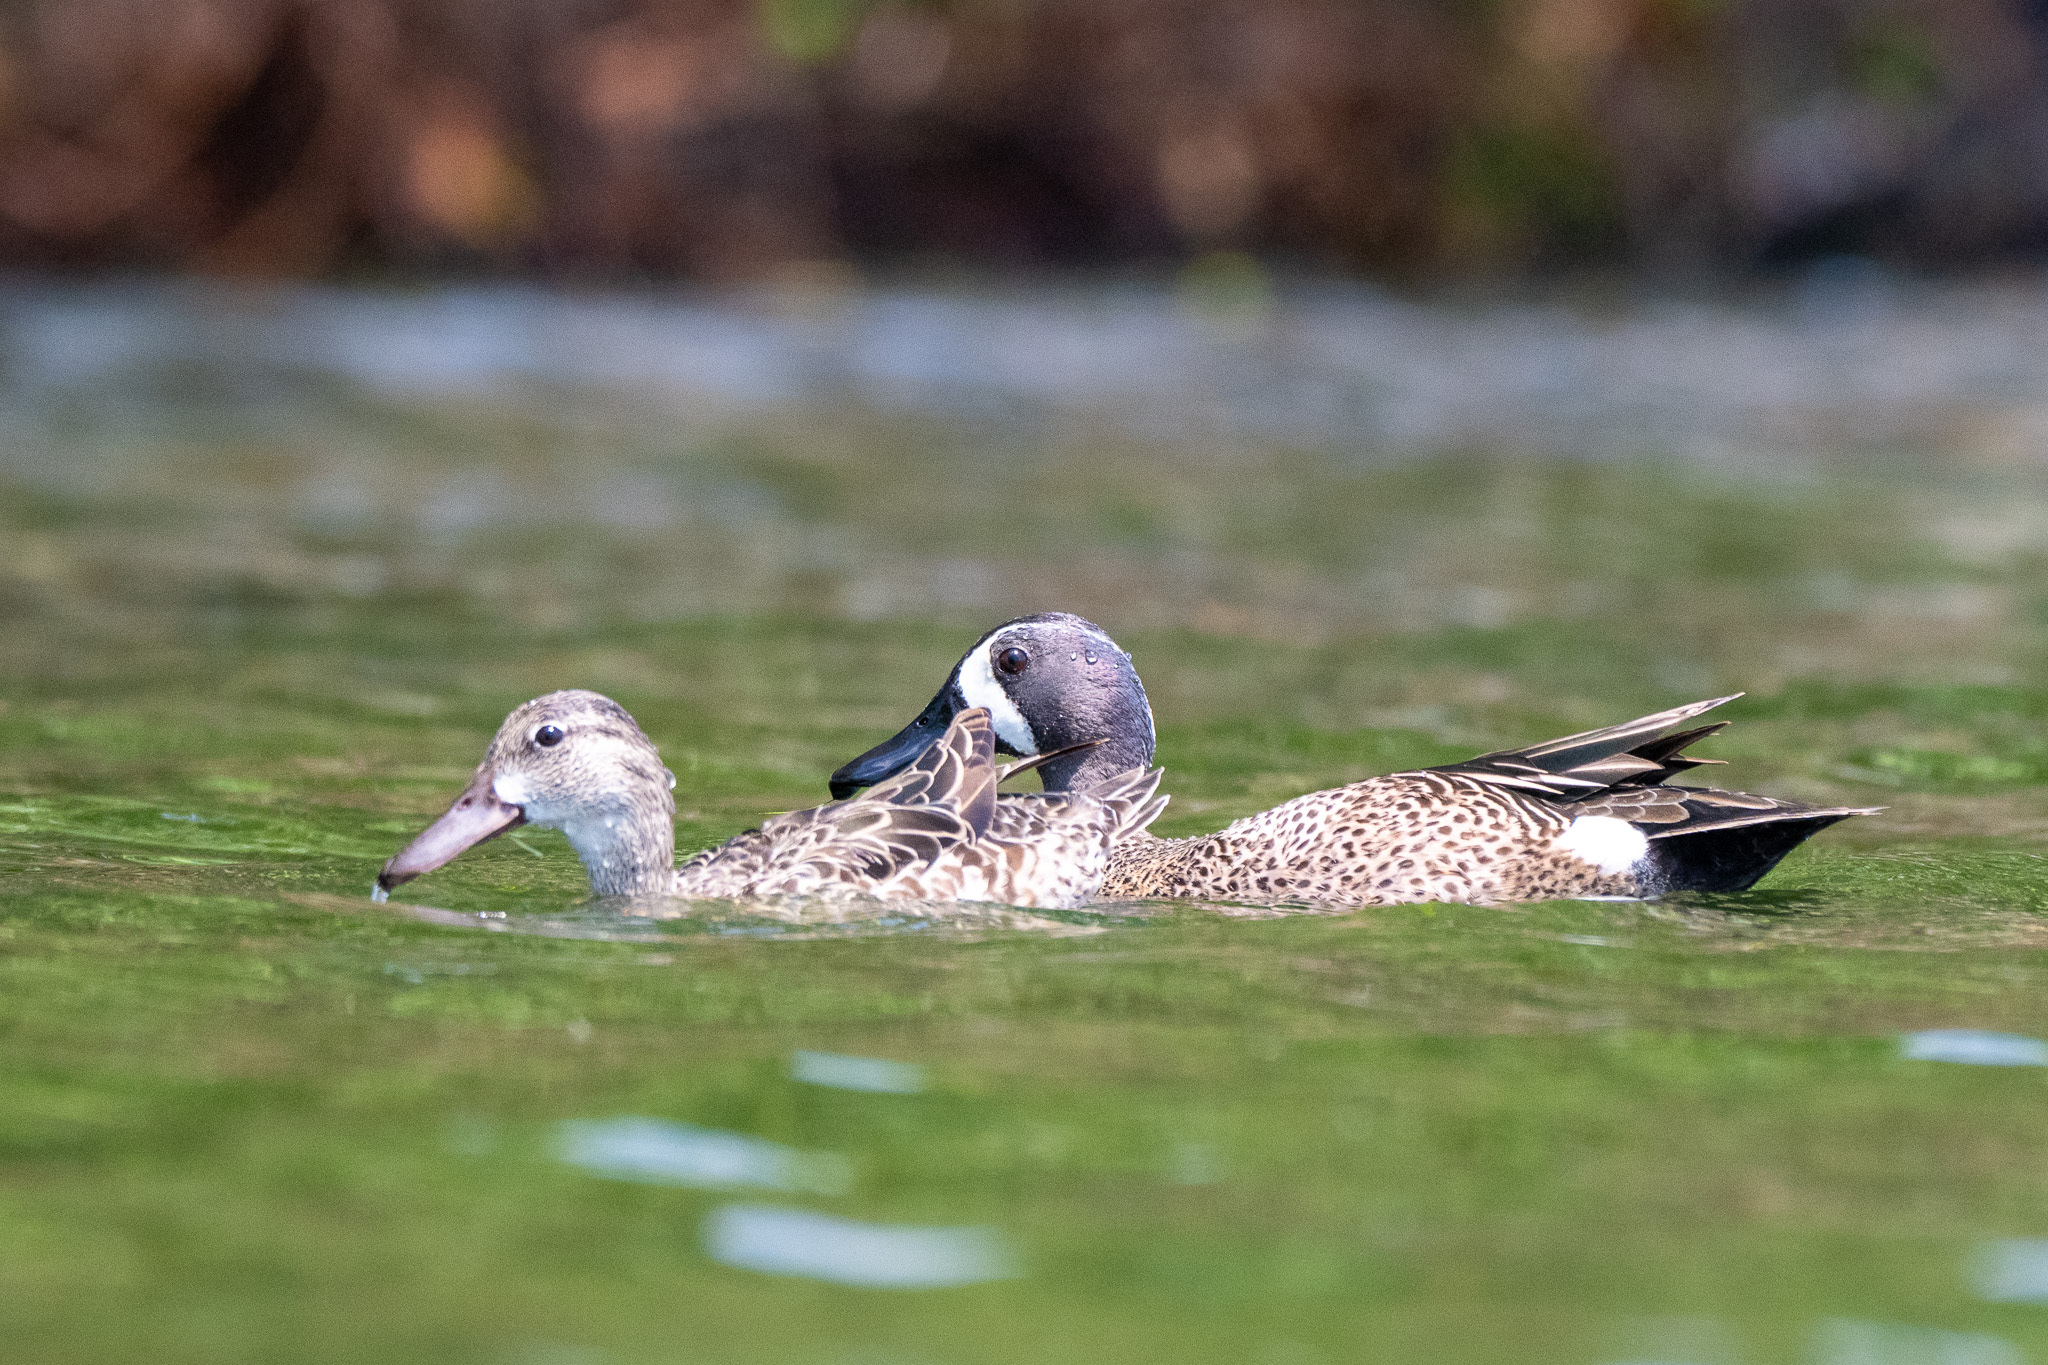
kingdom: Animalia
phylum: Chordata
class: Aves
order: Anseriformes
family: Anatidae
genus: Spatula
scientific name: Spatula discors
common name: Blue-winged teal
